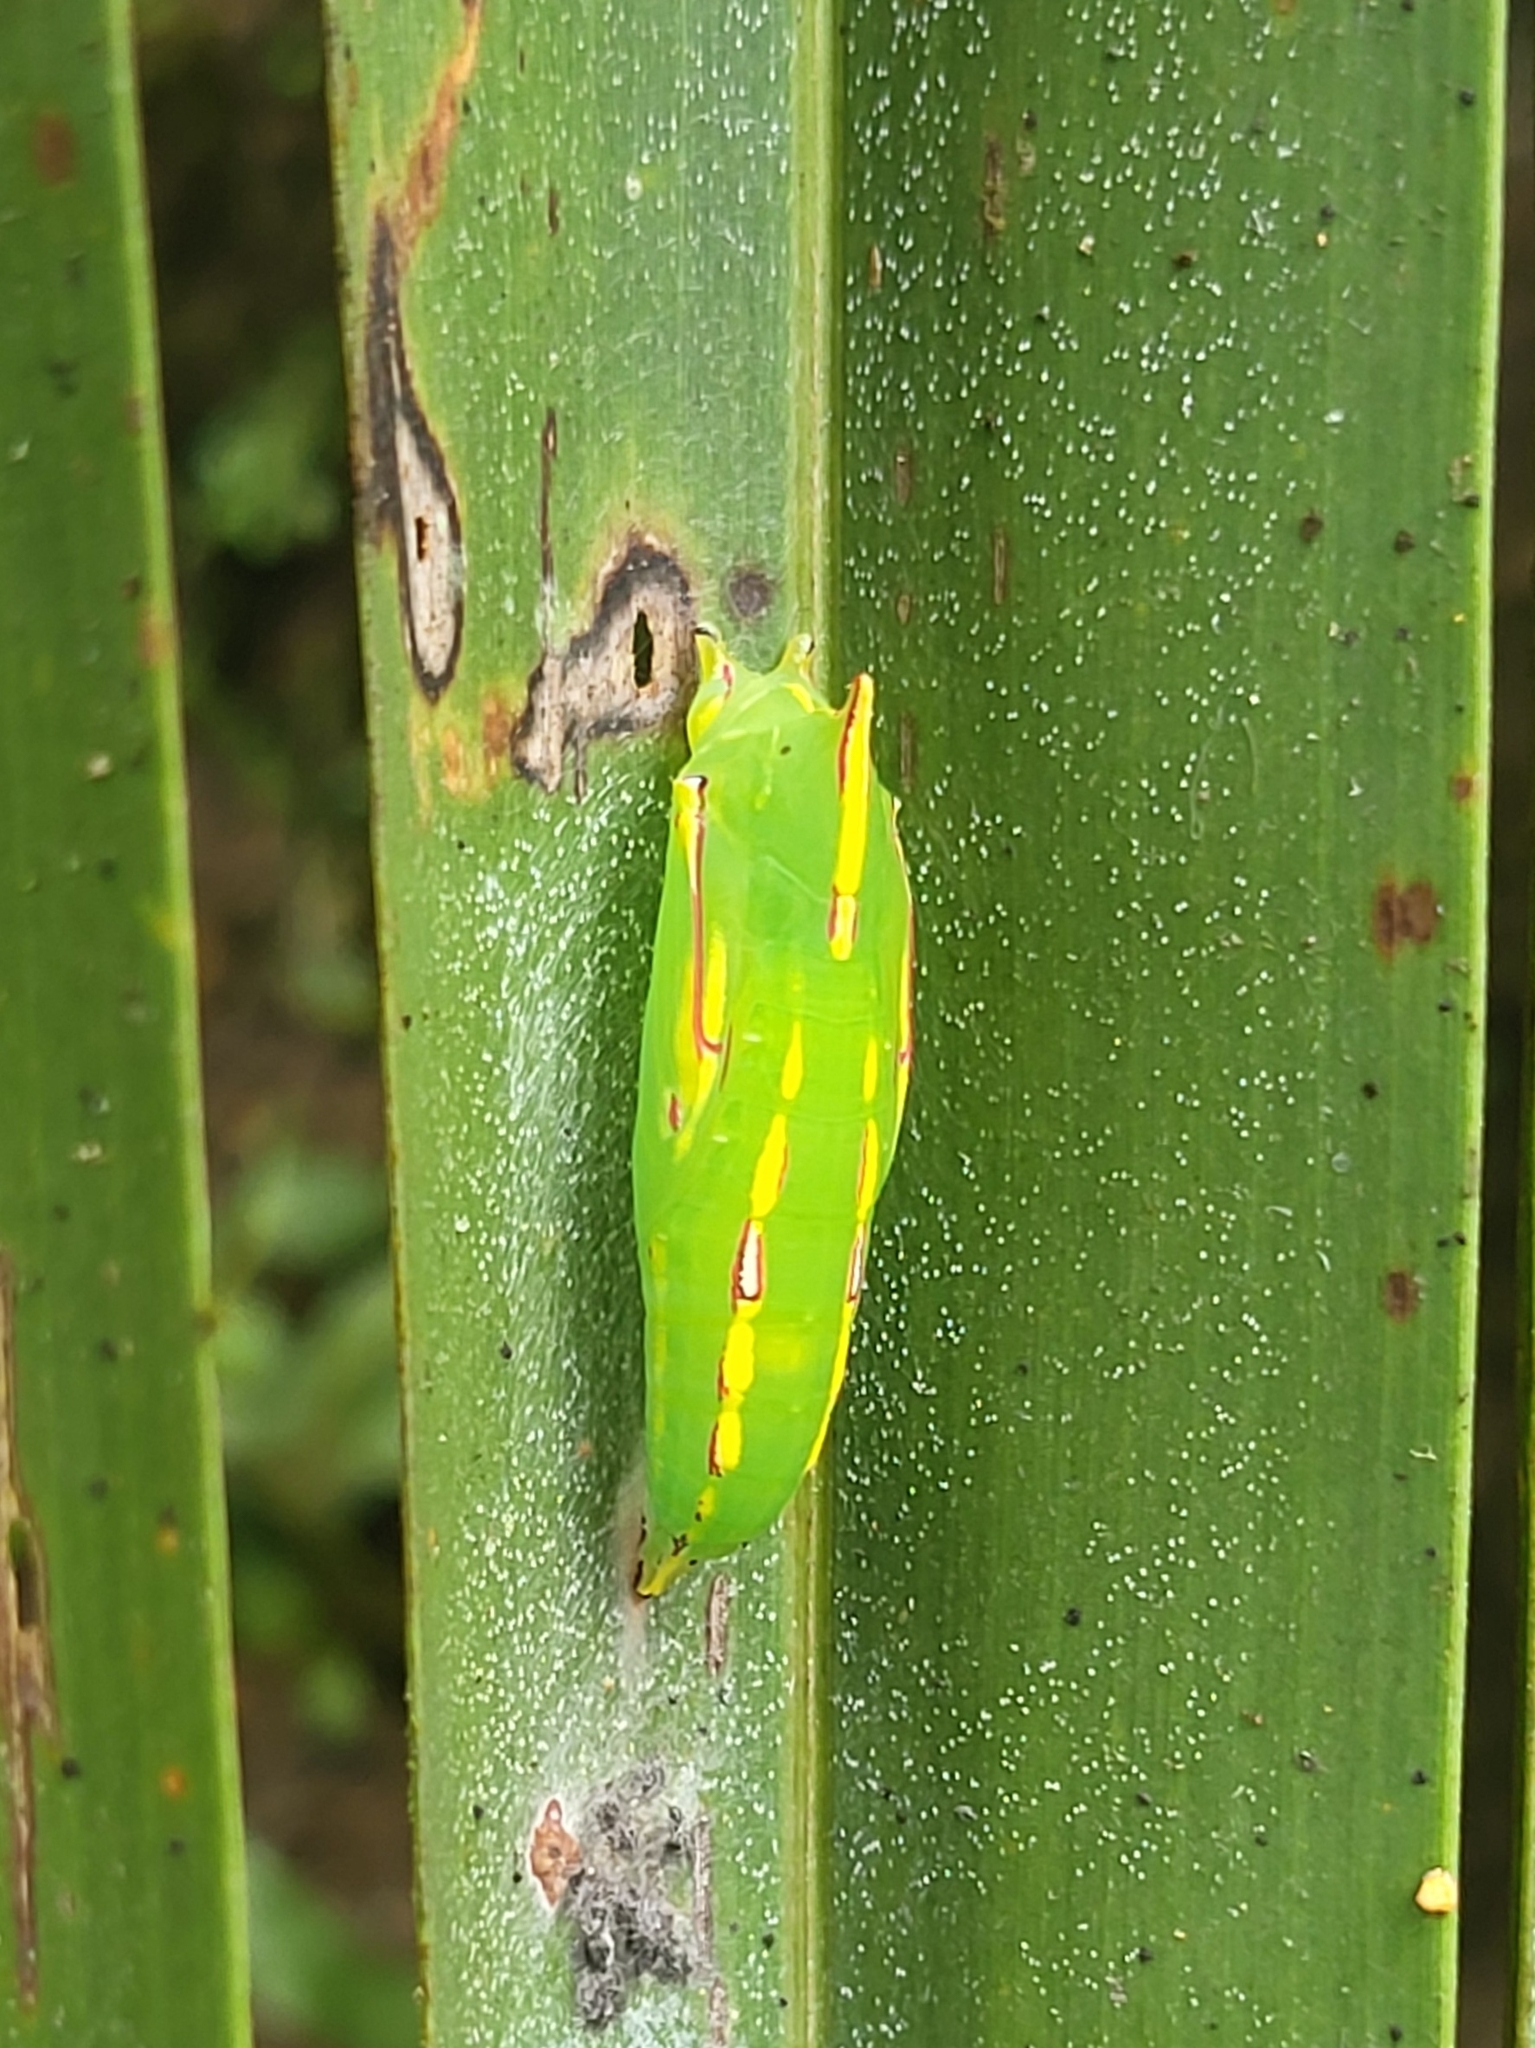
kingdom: Animalia
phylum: Arthropoda
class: Insecta
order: Lepidoptera
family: Nymphalidae
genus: Elymnias
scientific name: Elymnias nesaea
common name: Tiger palmfly
